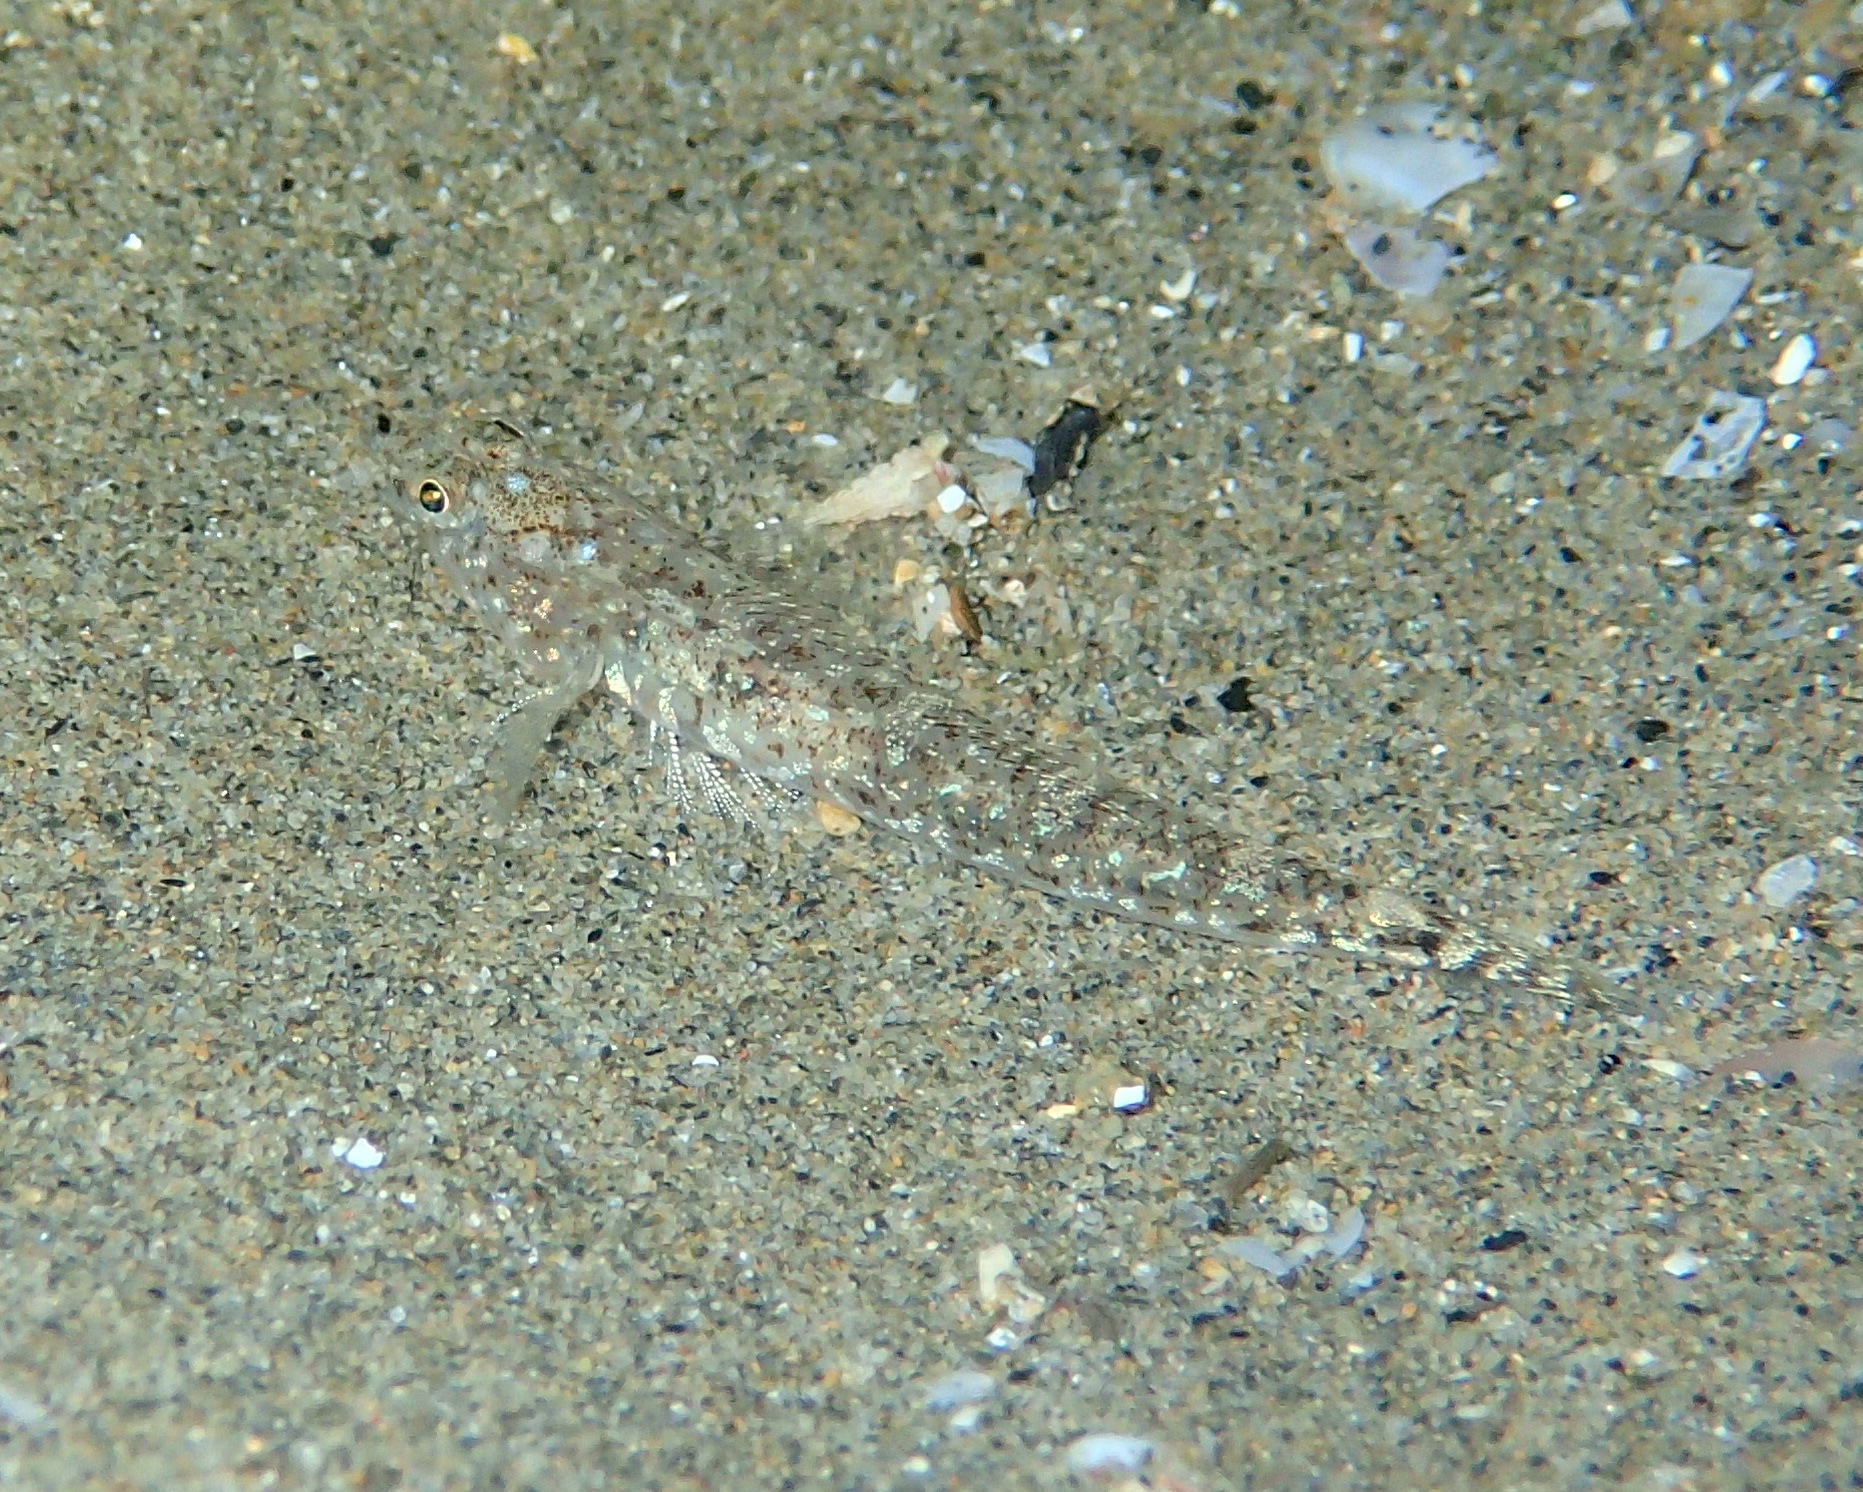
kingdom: Animalia
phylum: Chordata
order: Perciformes
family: Gobiidae
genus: Pomatoschistus
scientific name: Pomatoschistus marmoratus
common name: Marbled goby
